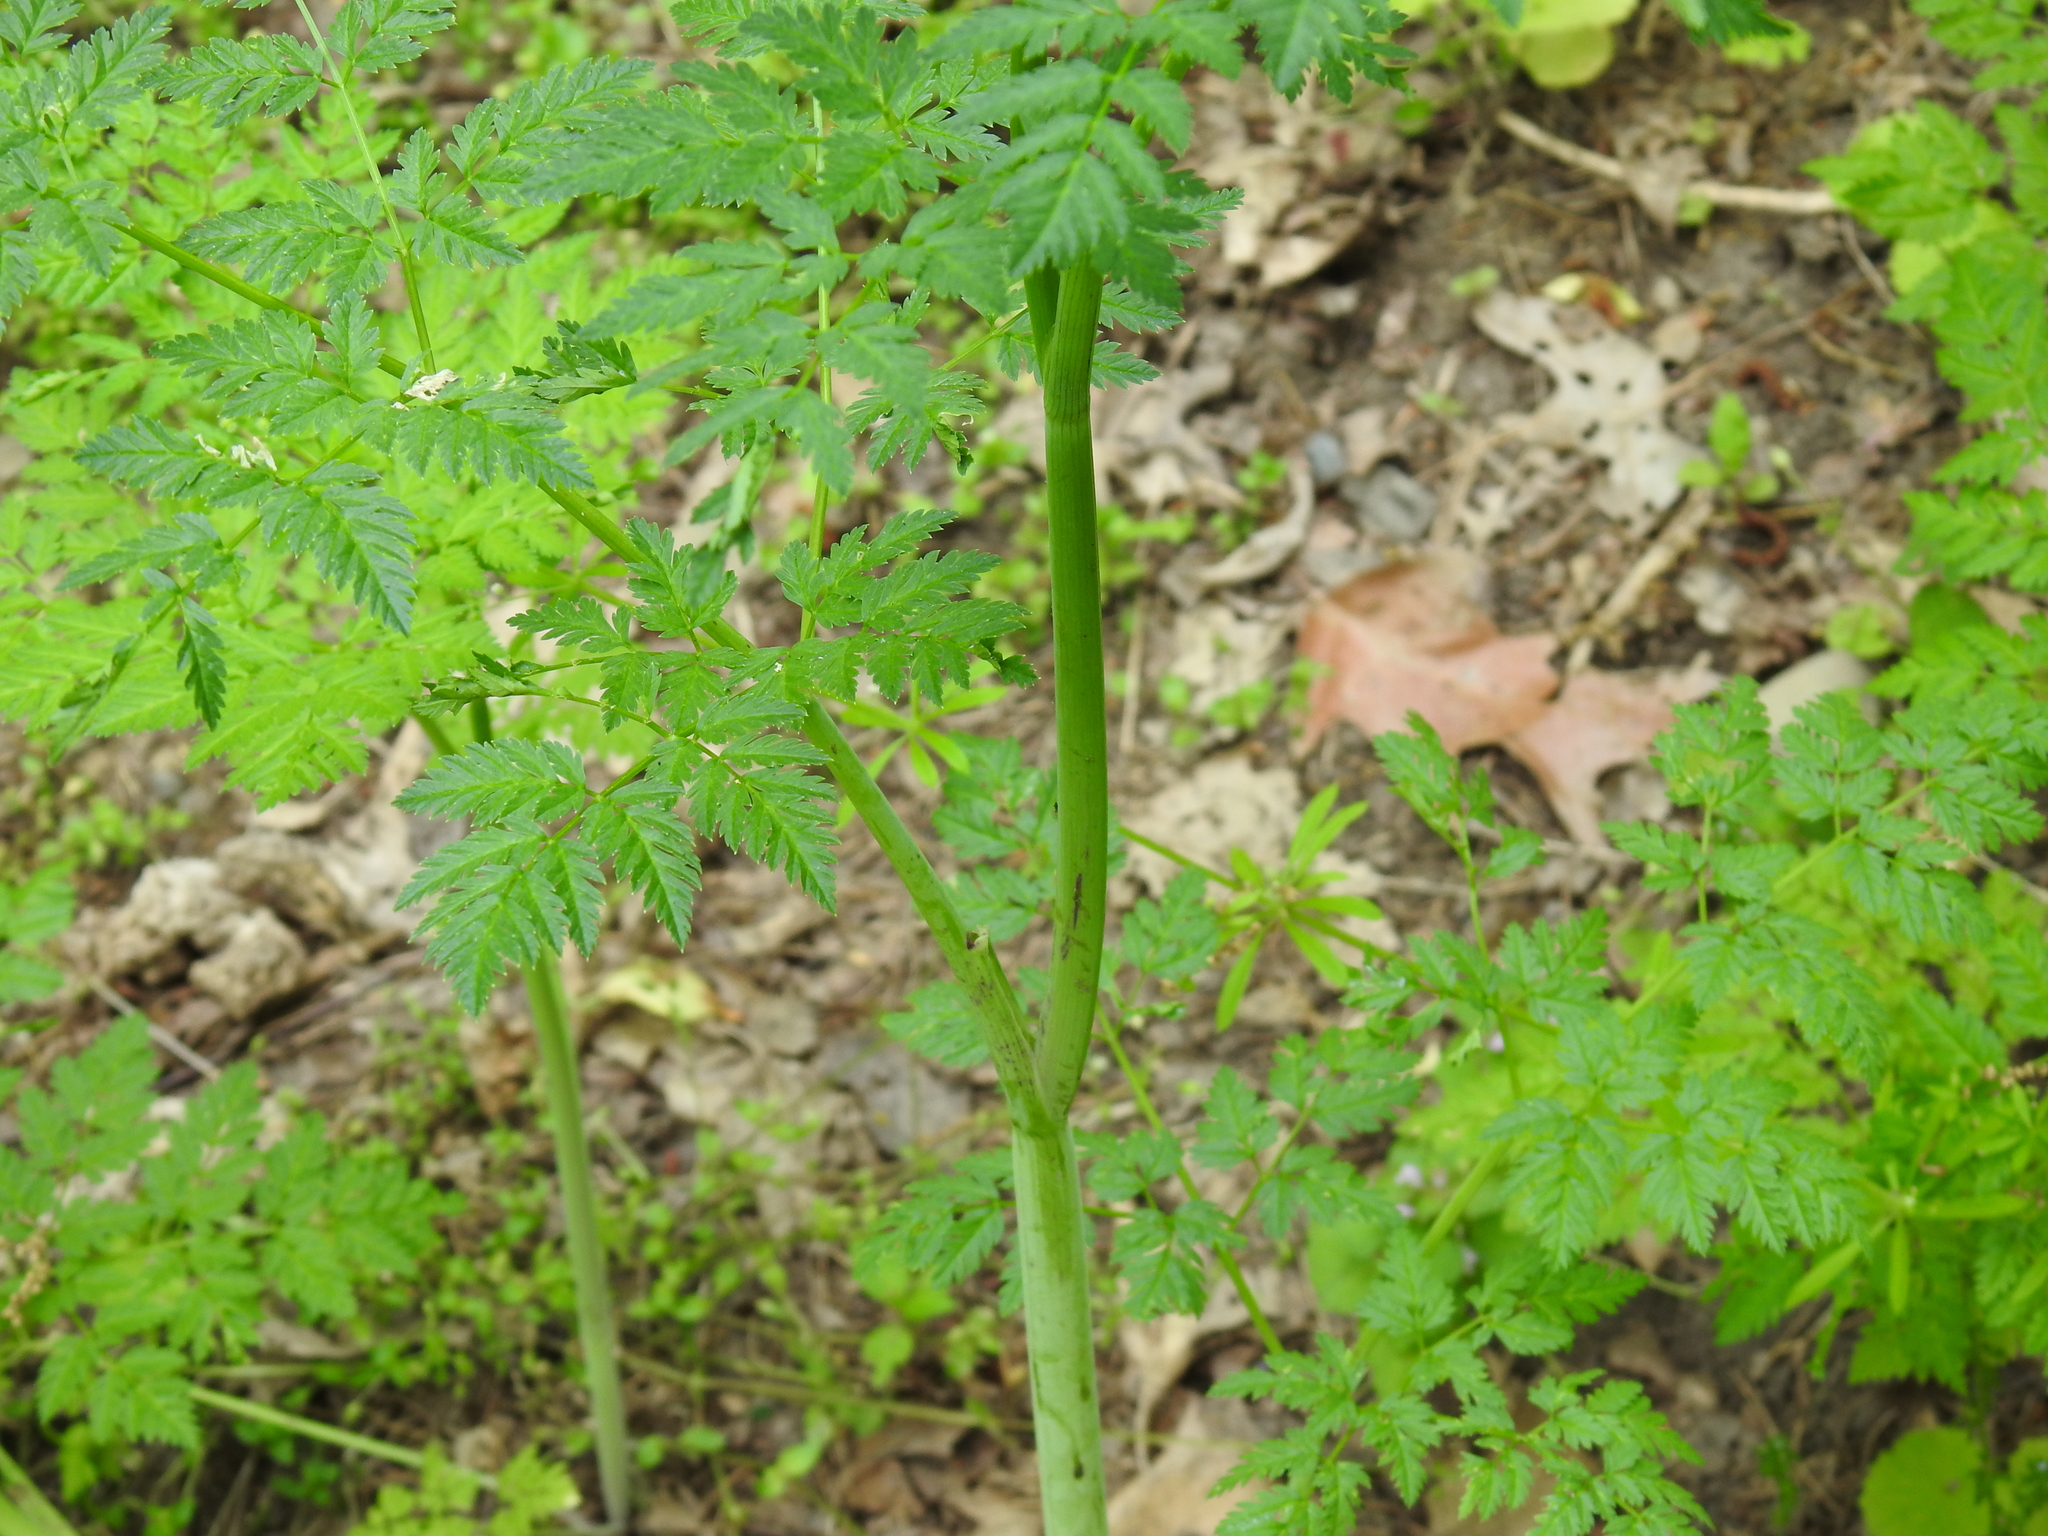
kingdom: Plantae
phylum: Tracheophyta
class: Magnoliopsida
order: Apiales
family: Apiaceae
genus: Conium
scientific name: Conium maculatum
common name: Hemlock
